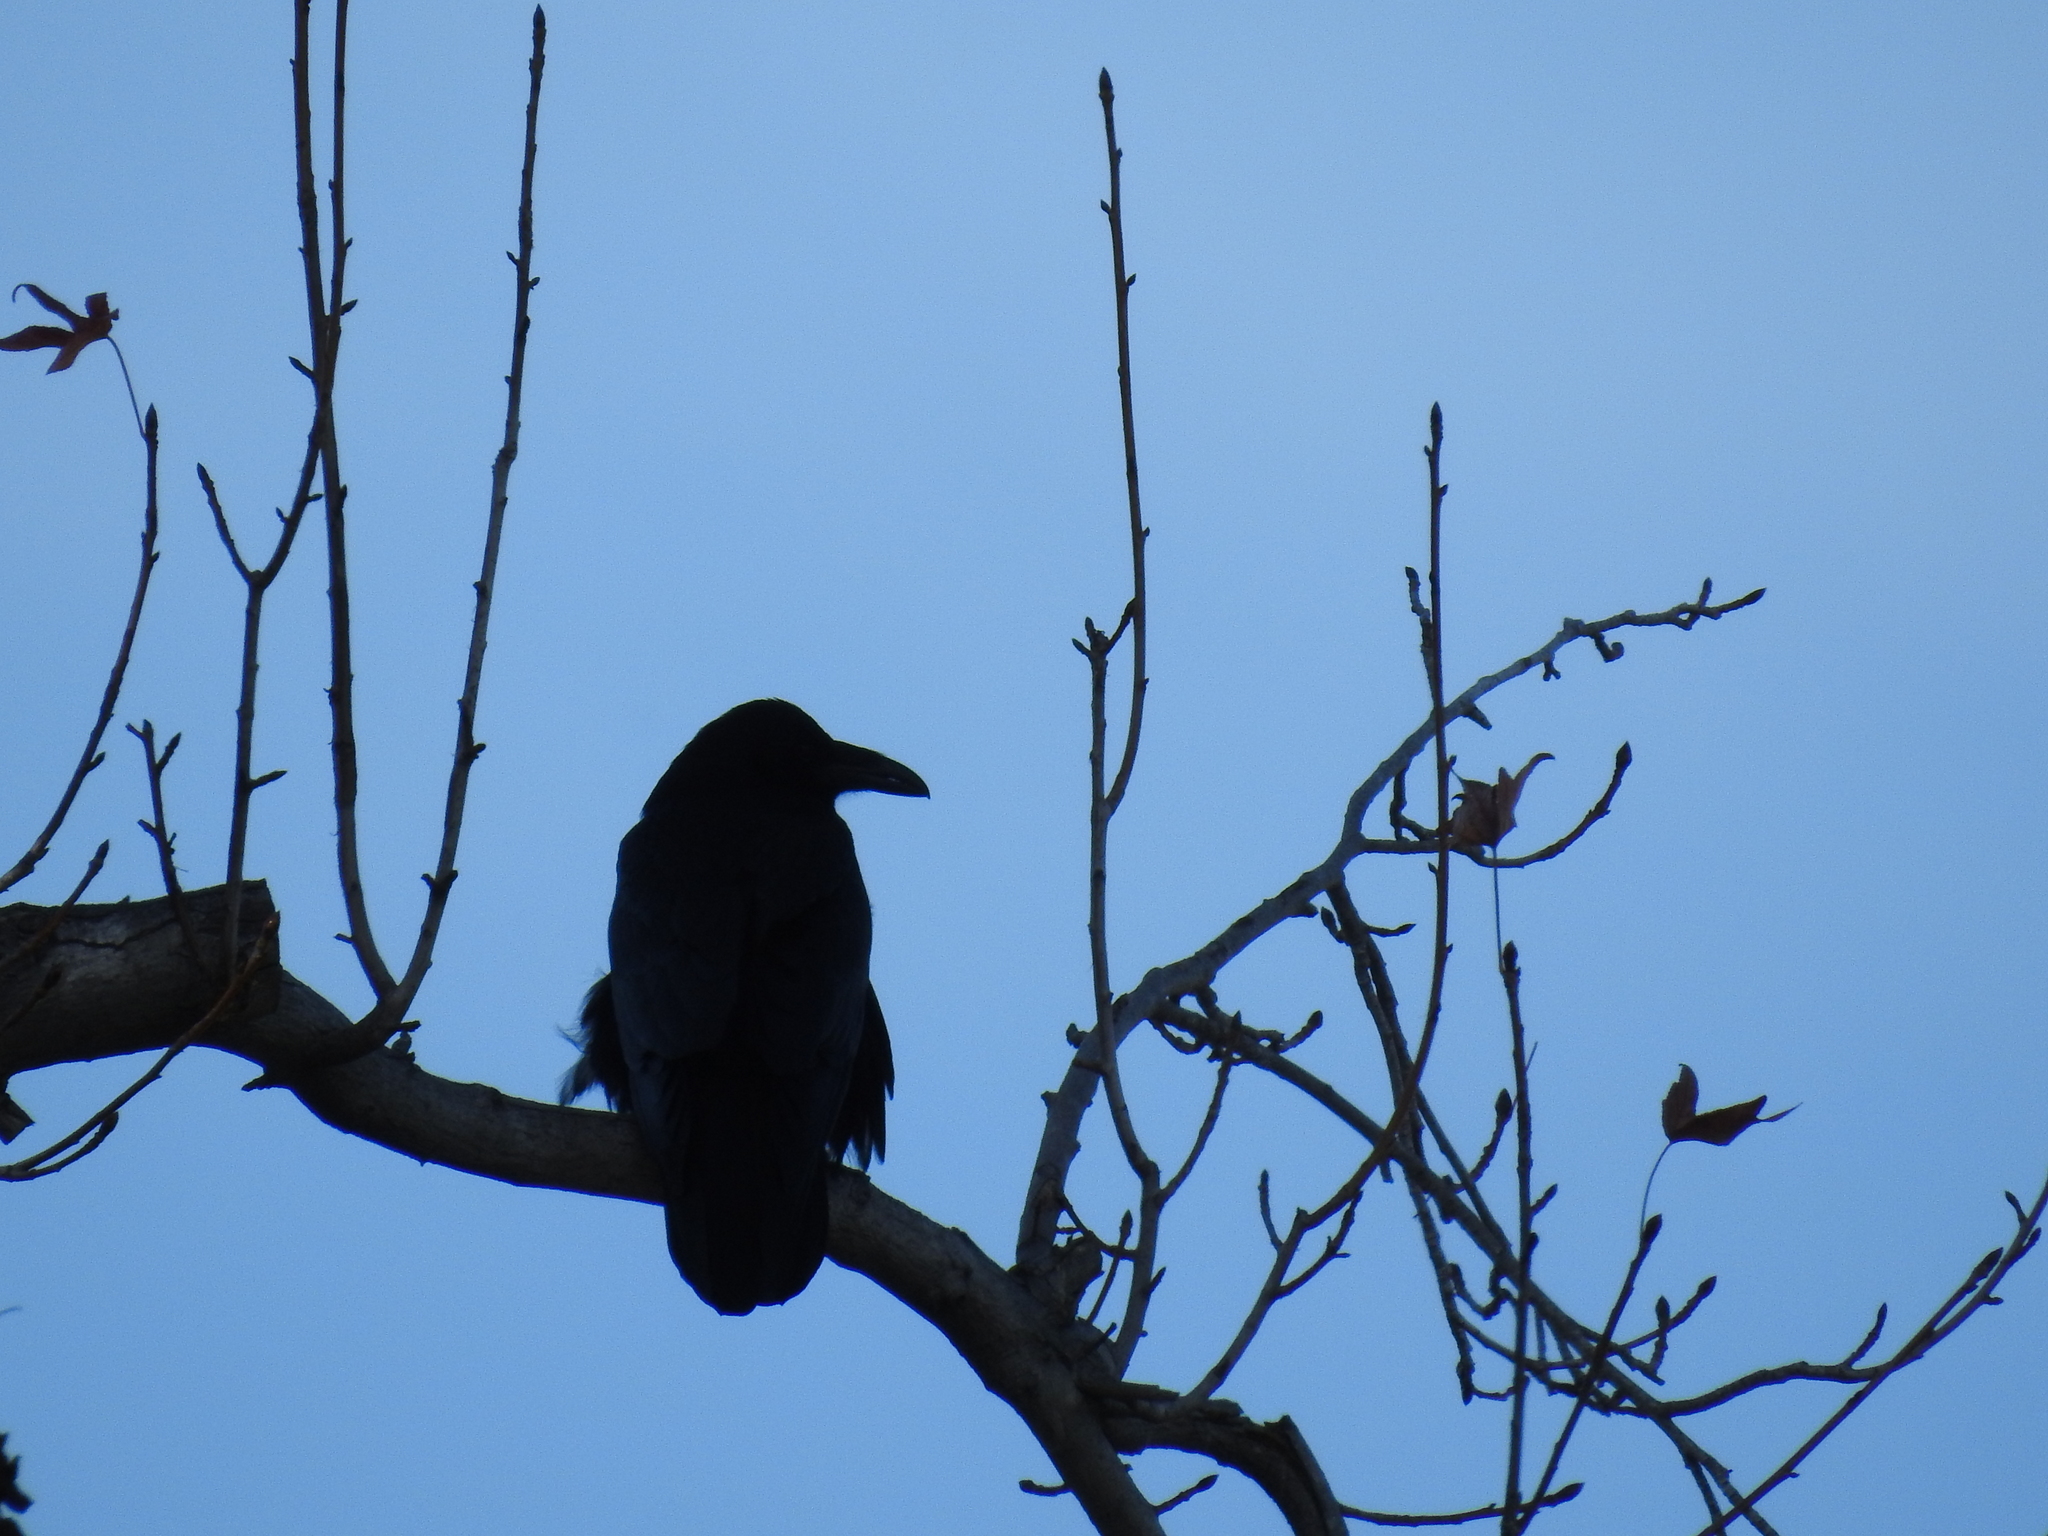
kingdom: Animalia
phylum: Chordata
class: Aves
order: Passeriformes
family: Corvidae
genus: Corvus
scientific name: Corvus corax
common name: Common raven
